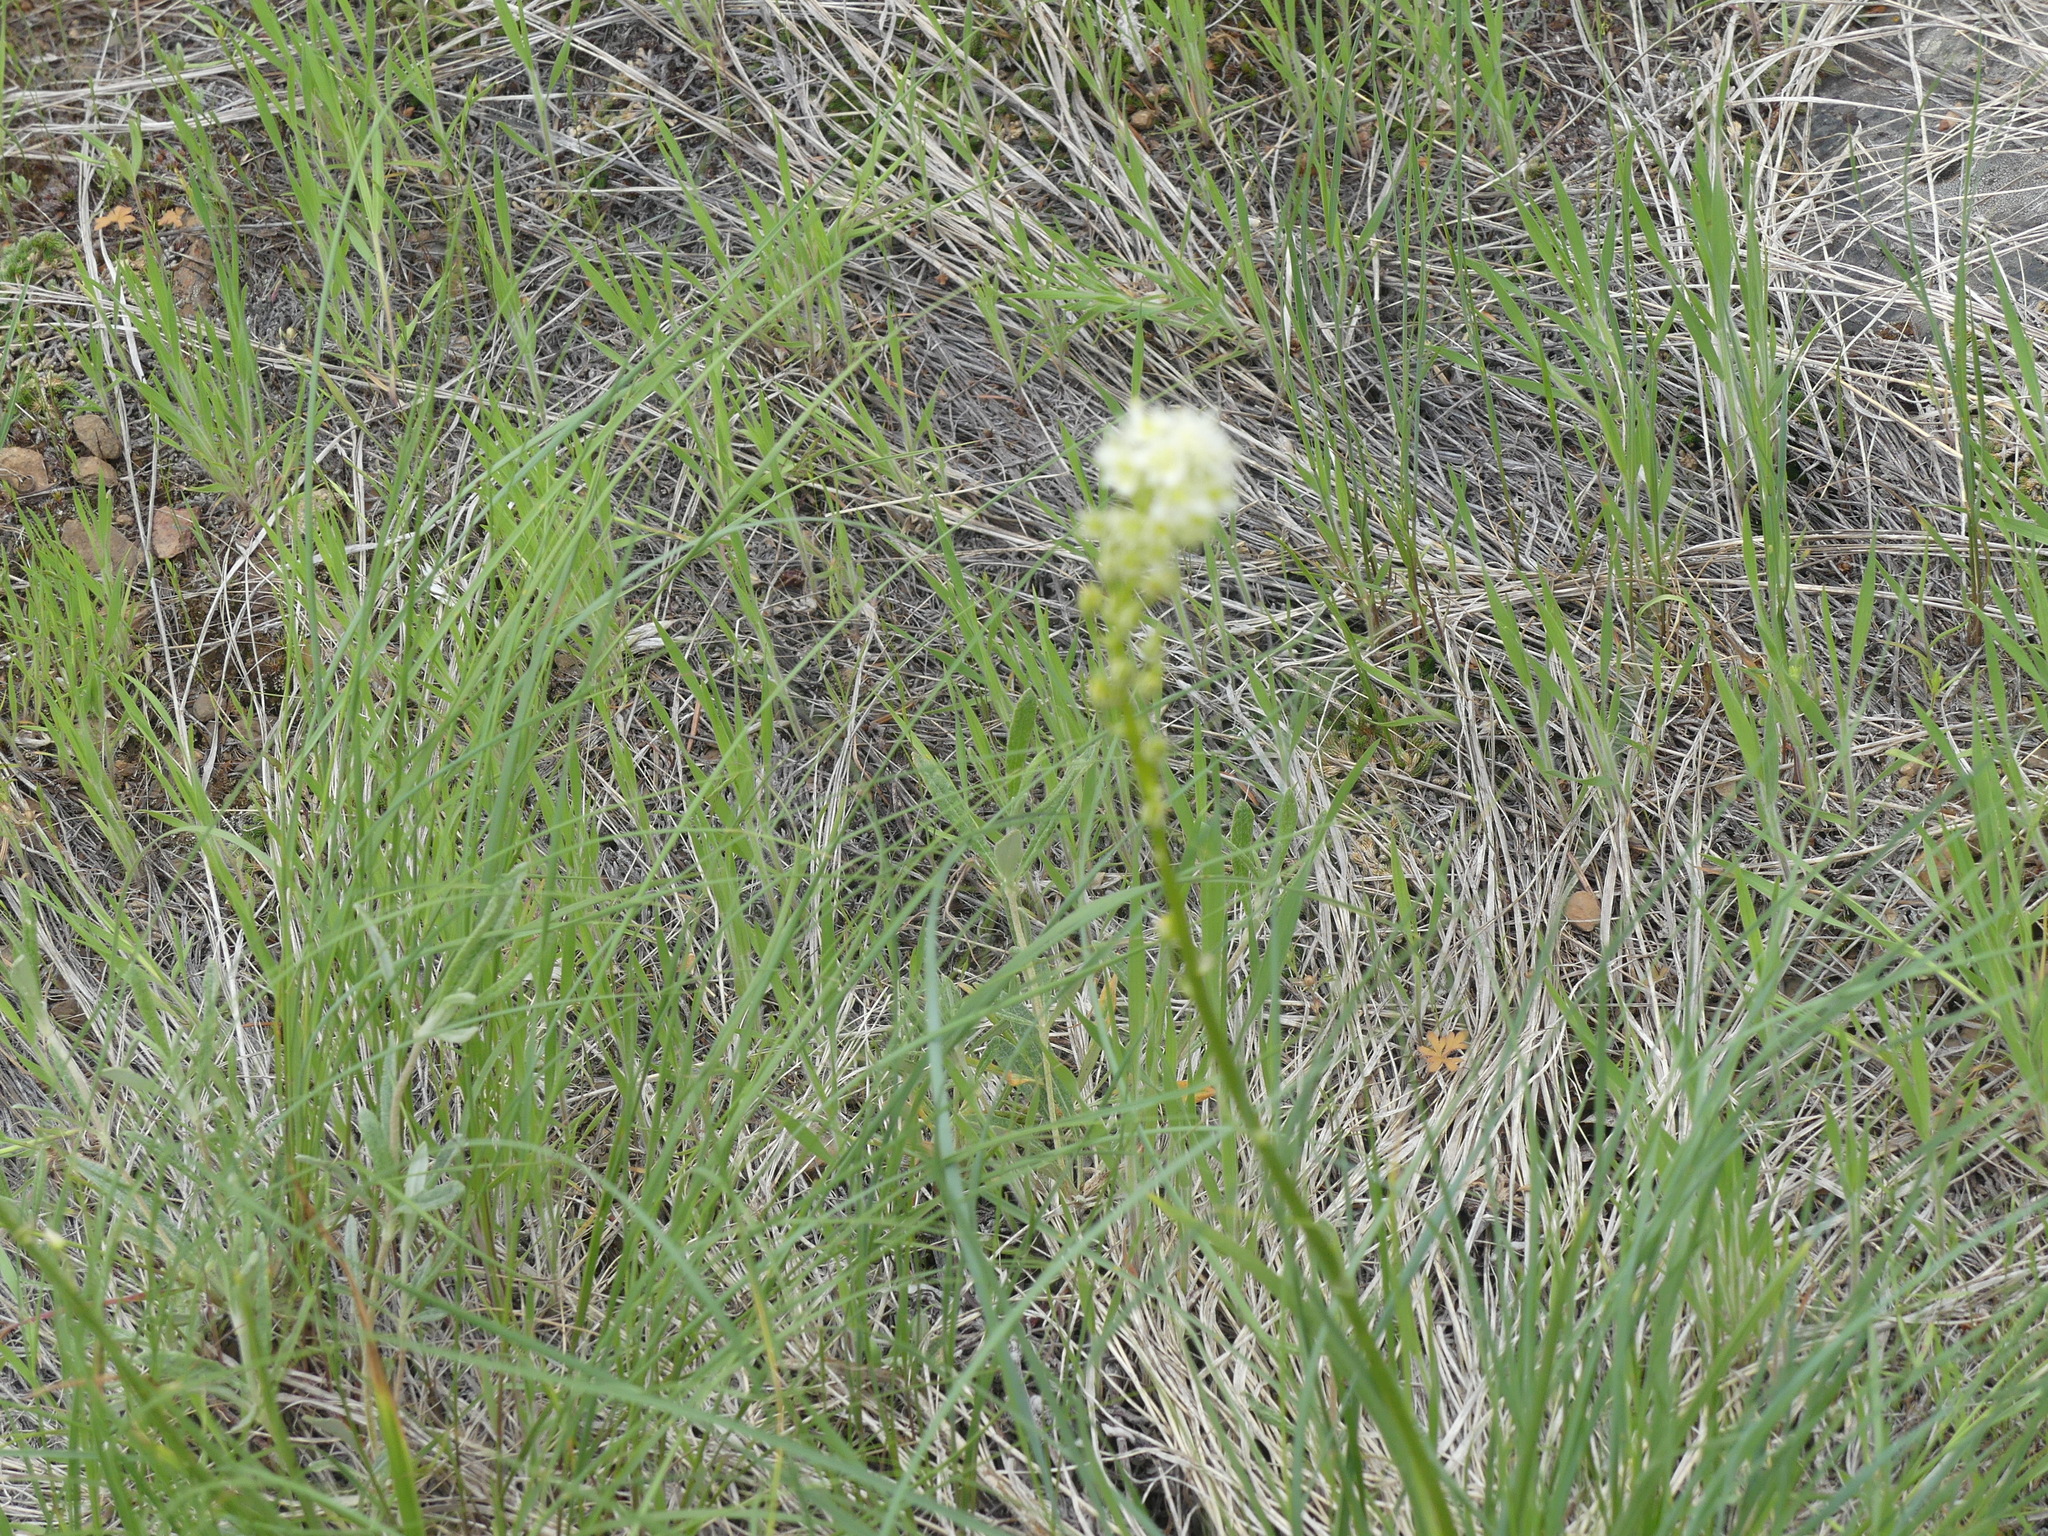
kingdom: Plantae
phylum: Tracheophyta
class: Liliopsida
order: Liliales
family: Melanthiaceae
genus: Toxicoscordion
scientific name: Toxicoscordion venenosum
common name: Meadow death camas
